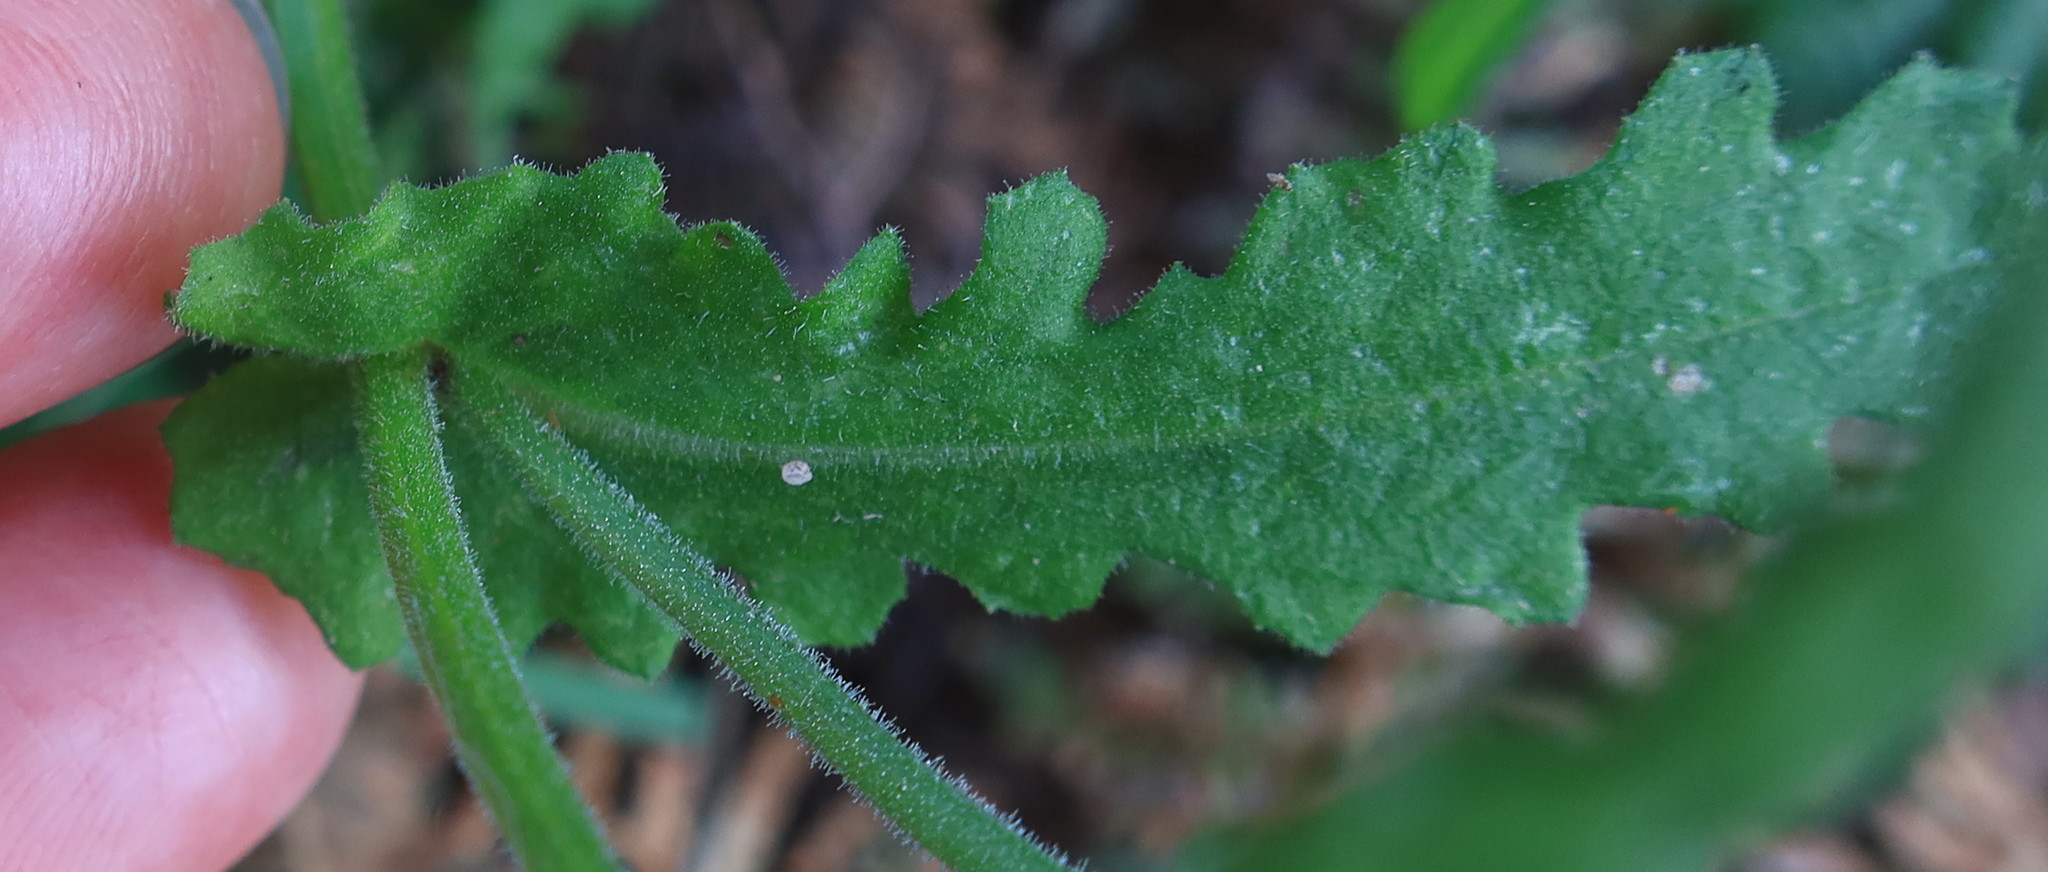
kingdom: Plantae
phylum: Tracheophyta
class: Magnoliopsida
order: Asterales
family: Asteraceae
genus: Senecio
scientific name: Senecio hastatus
